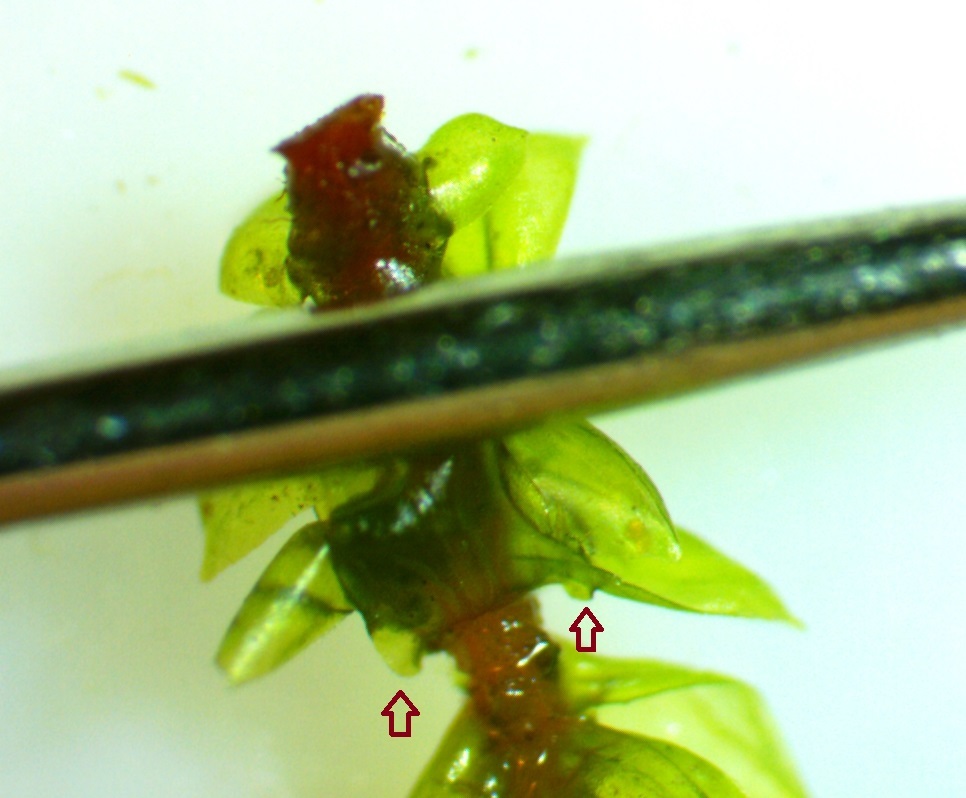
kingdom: Plantae
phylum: Bryophyta
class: Bryopsida
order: Hypnales
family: Climaciaceae
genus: Climacium
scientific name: Climacium americanum
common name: American tree moss
